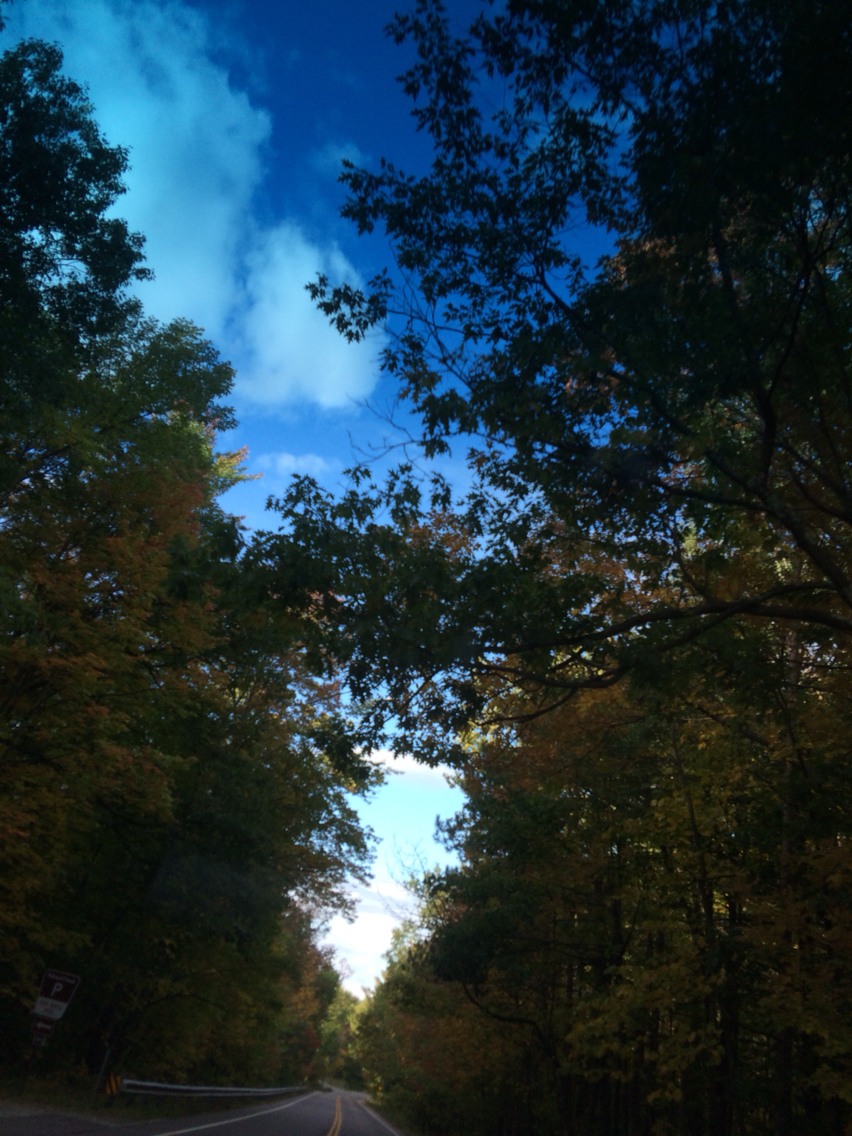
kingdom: Plantae
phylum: Tracheophyta
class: Magnoliopsida
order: Fagales
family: Fagaceae
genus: Quercus
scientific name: Quercus rubra
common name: Red oak
